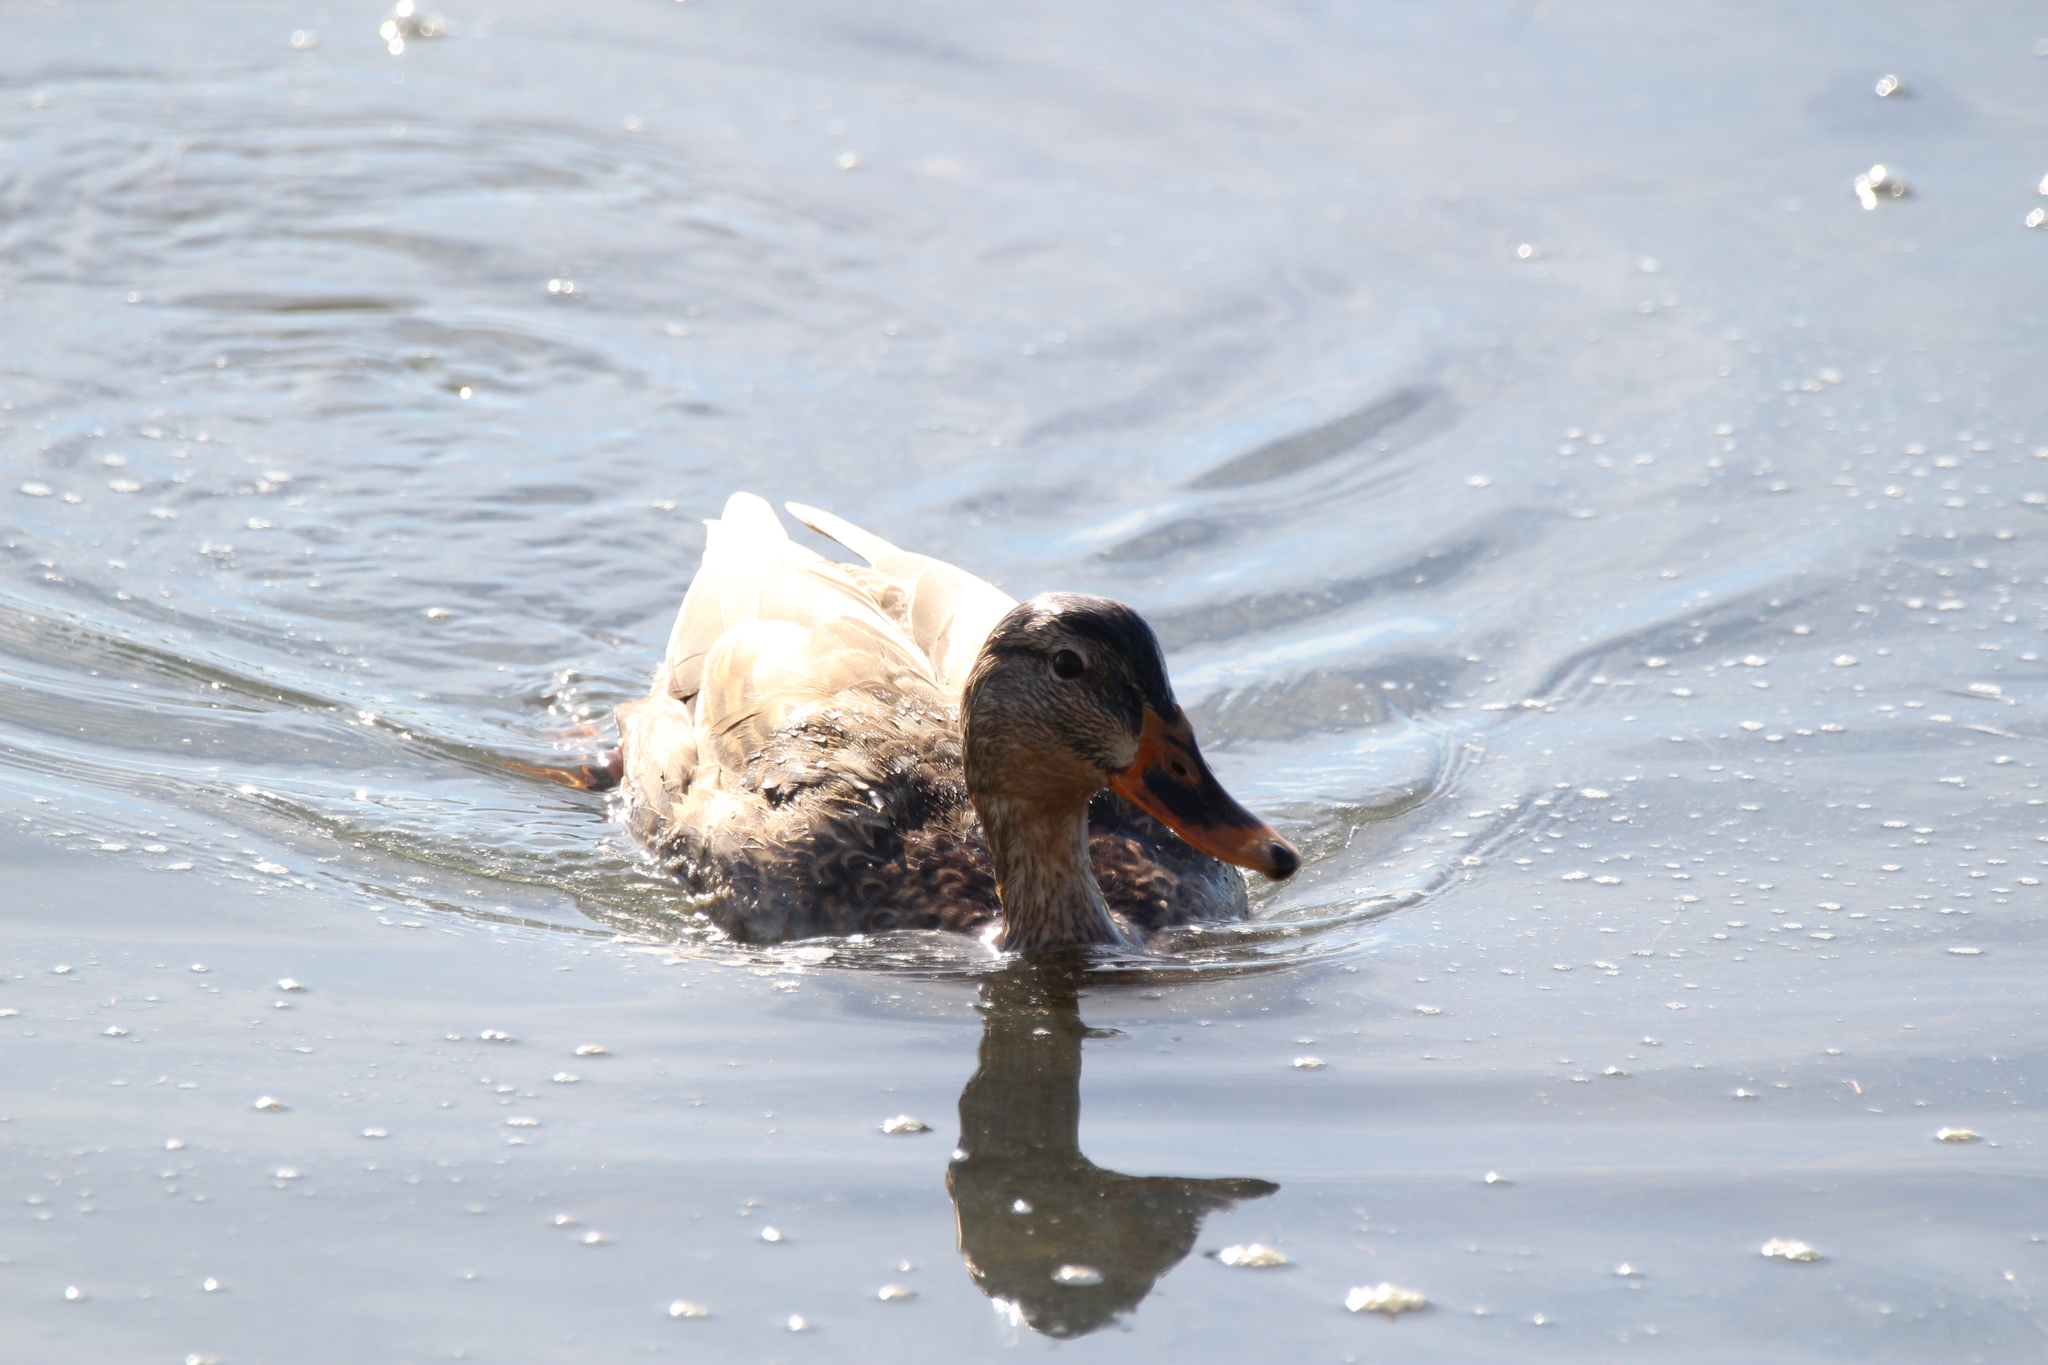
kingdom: Animalia
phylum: Chordata
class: Aves
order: Anseriformes
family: Anatidae
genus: Anas
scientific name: Anas platyrhynchos
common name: Mallard
